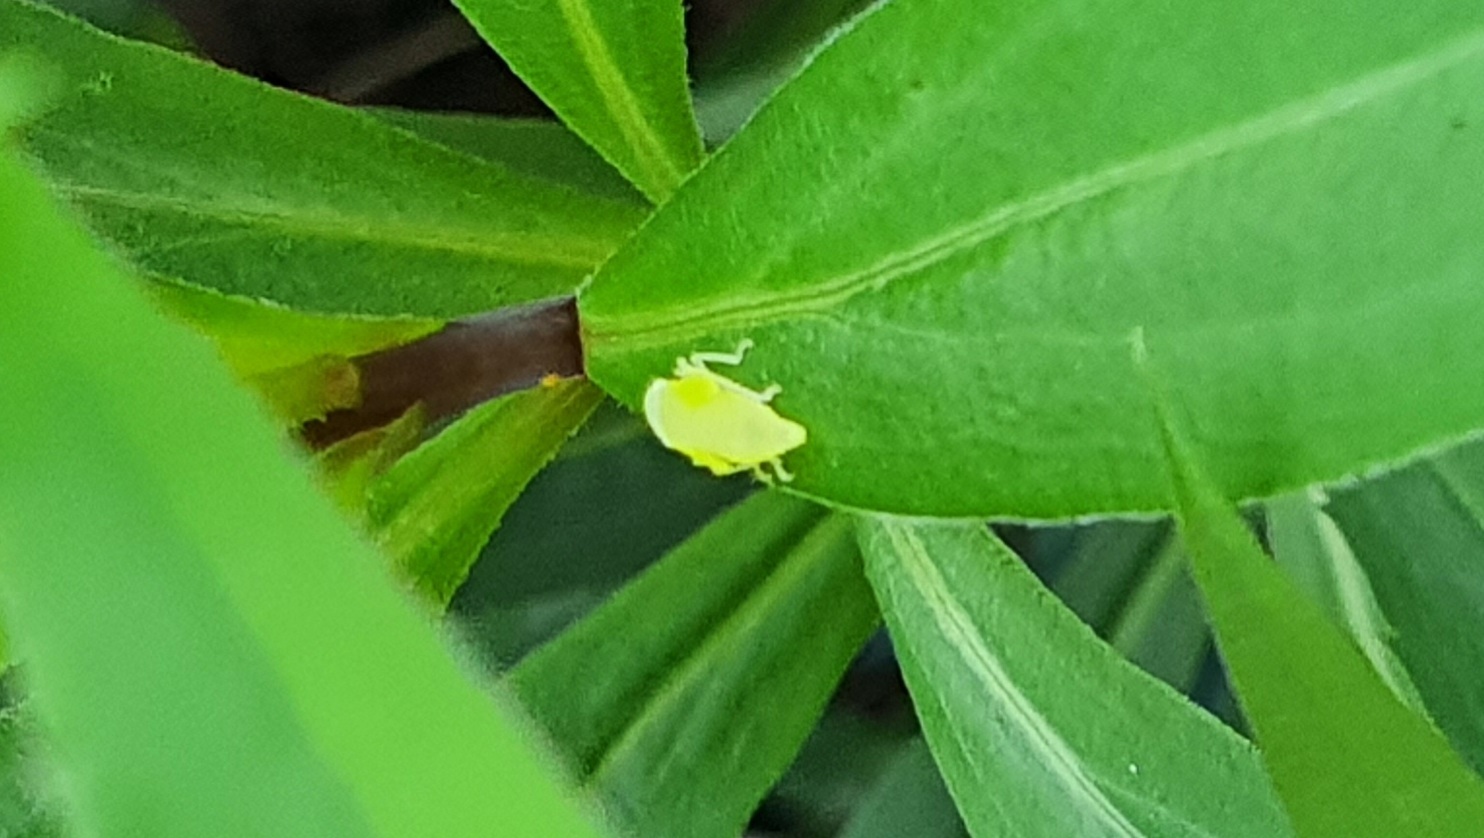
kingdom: Animalia
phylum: Arthropoda
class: Insecta
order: Hemiptera
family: Cicadellidae
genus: Graphocephala
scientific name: Graphocephala fennahi
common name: Rhododendron leafhopper
